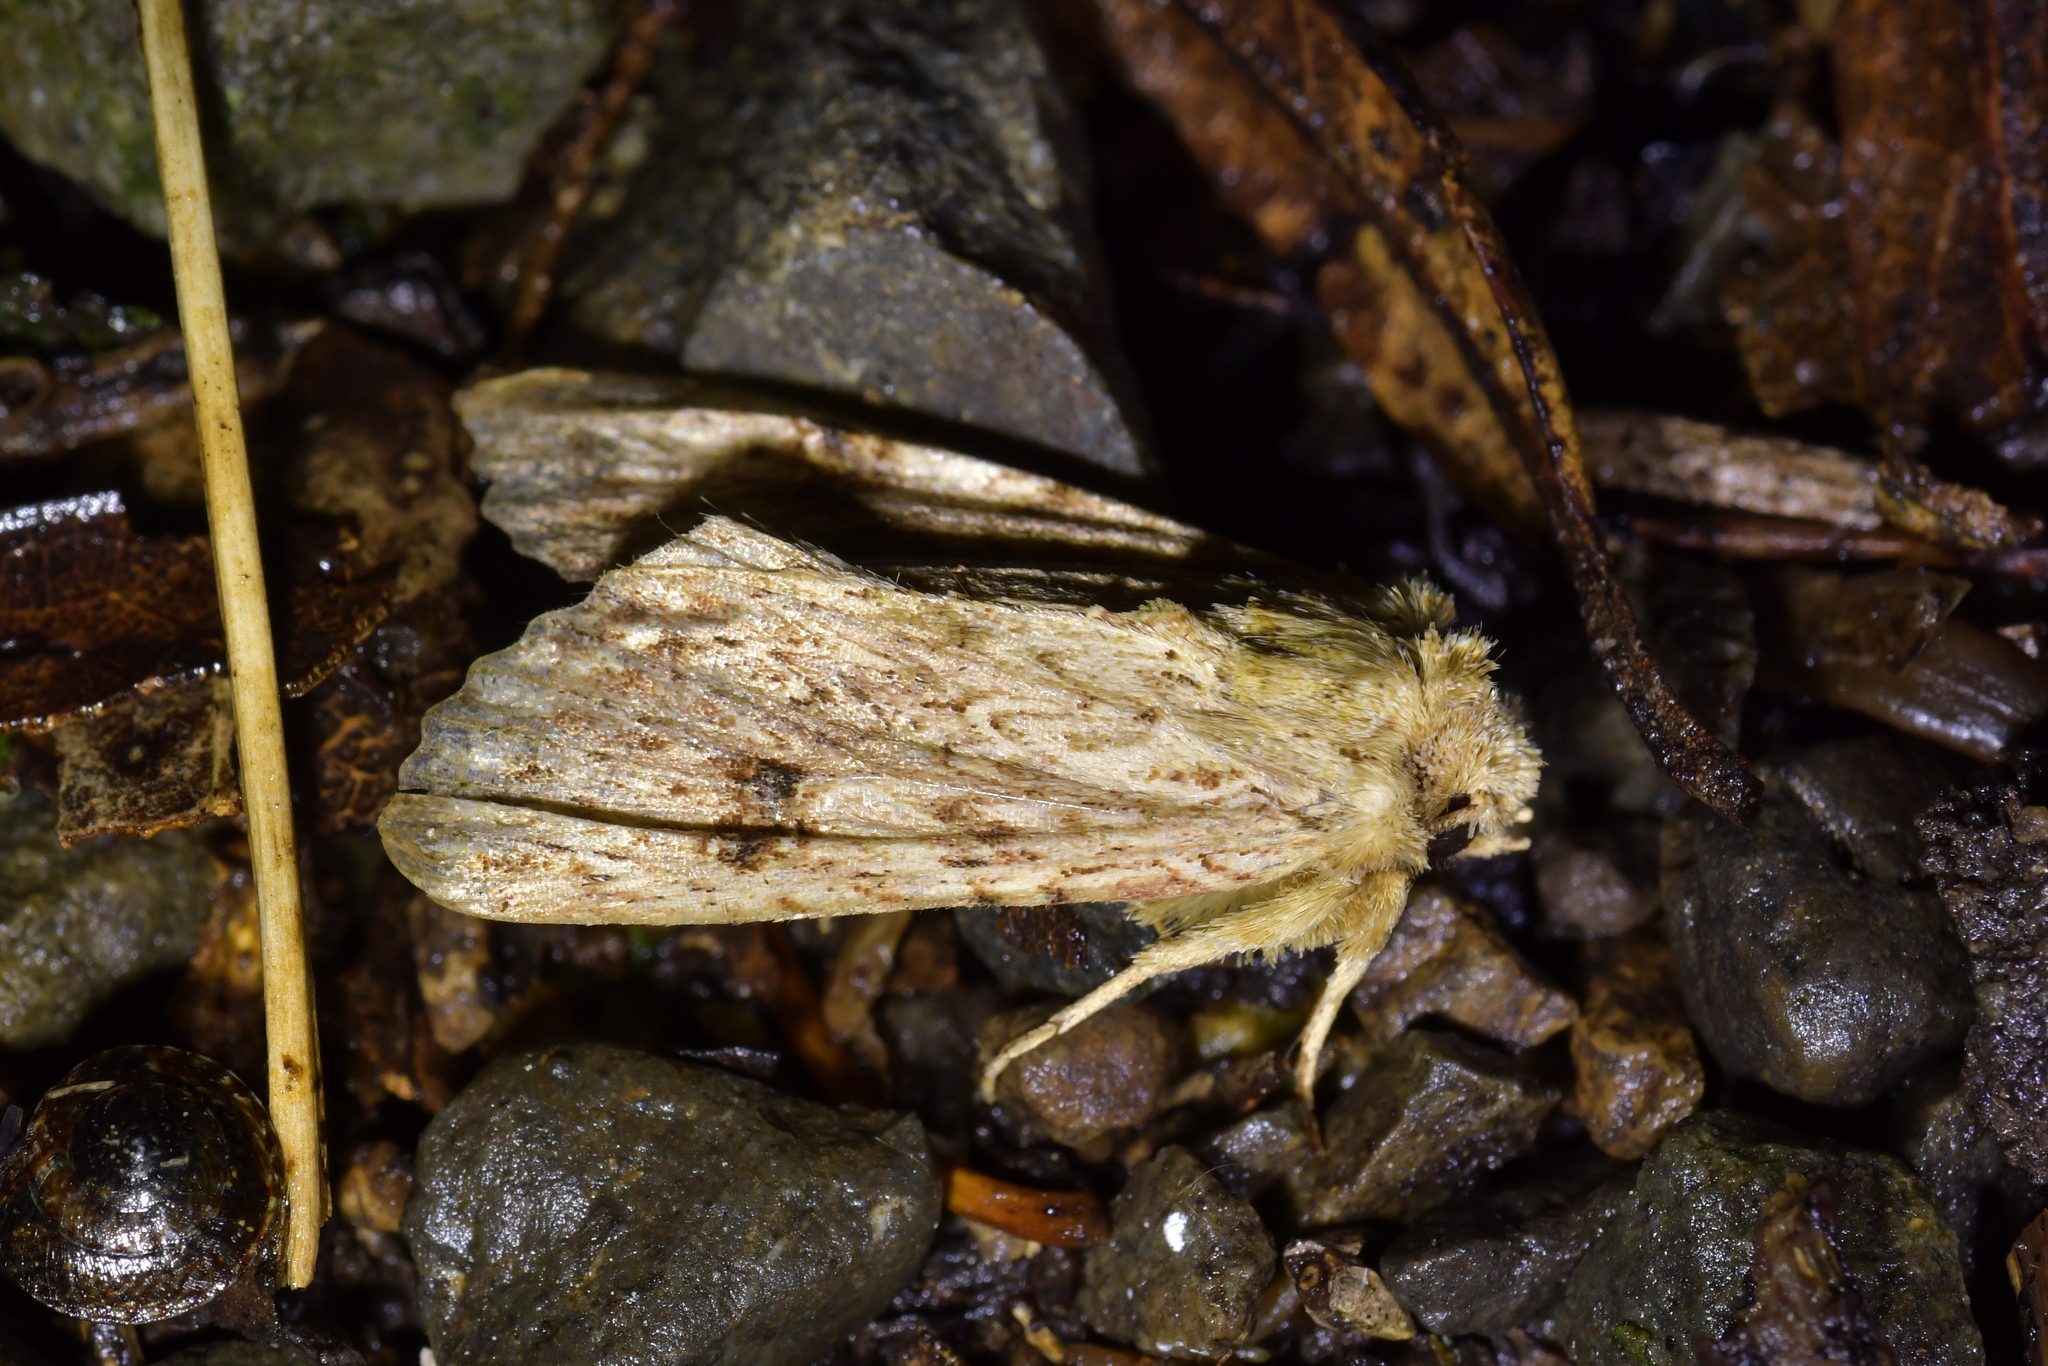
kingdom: Animalia
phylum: Arthropoda
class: Insecta
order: Lepidoptera
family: Noctuidae
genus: Meterana
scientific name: Meterana pansicolor
